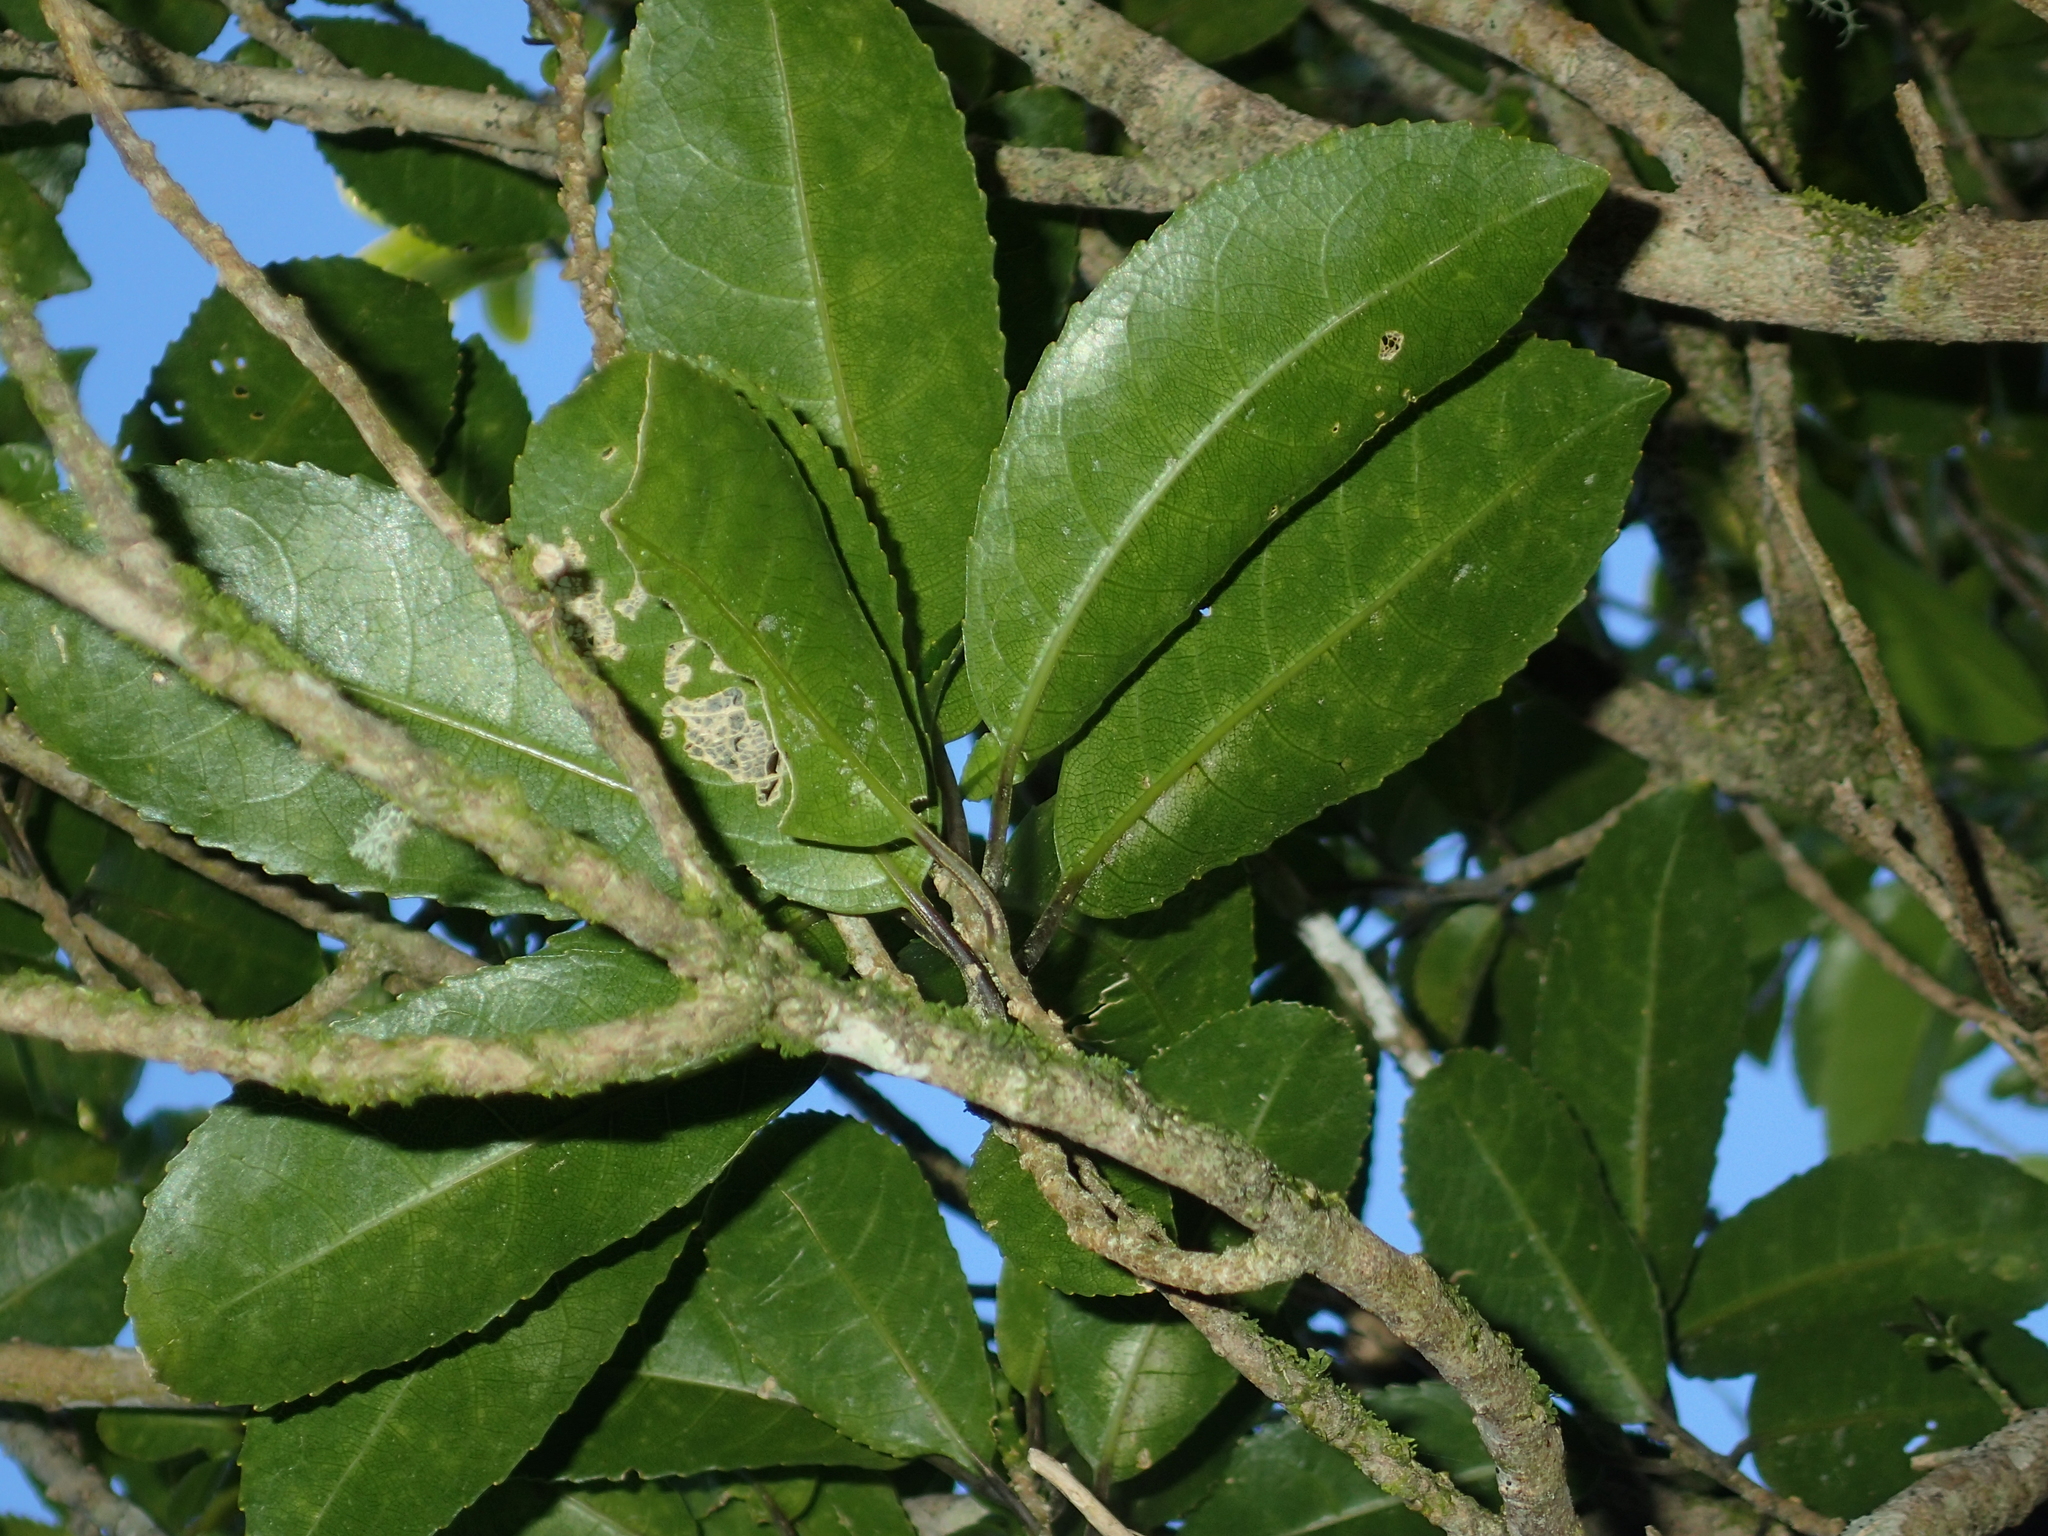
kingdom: Plantae
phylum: Tracheophyta
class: Magnoliopsida
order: Malpighiales
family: Violaceae
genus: Melicytus
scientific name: Melicytus ramiflorus
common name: Mahoe
